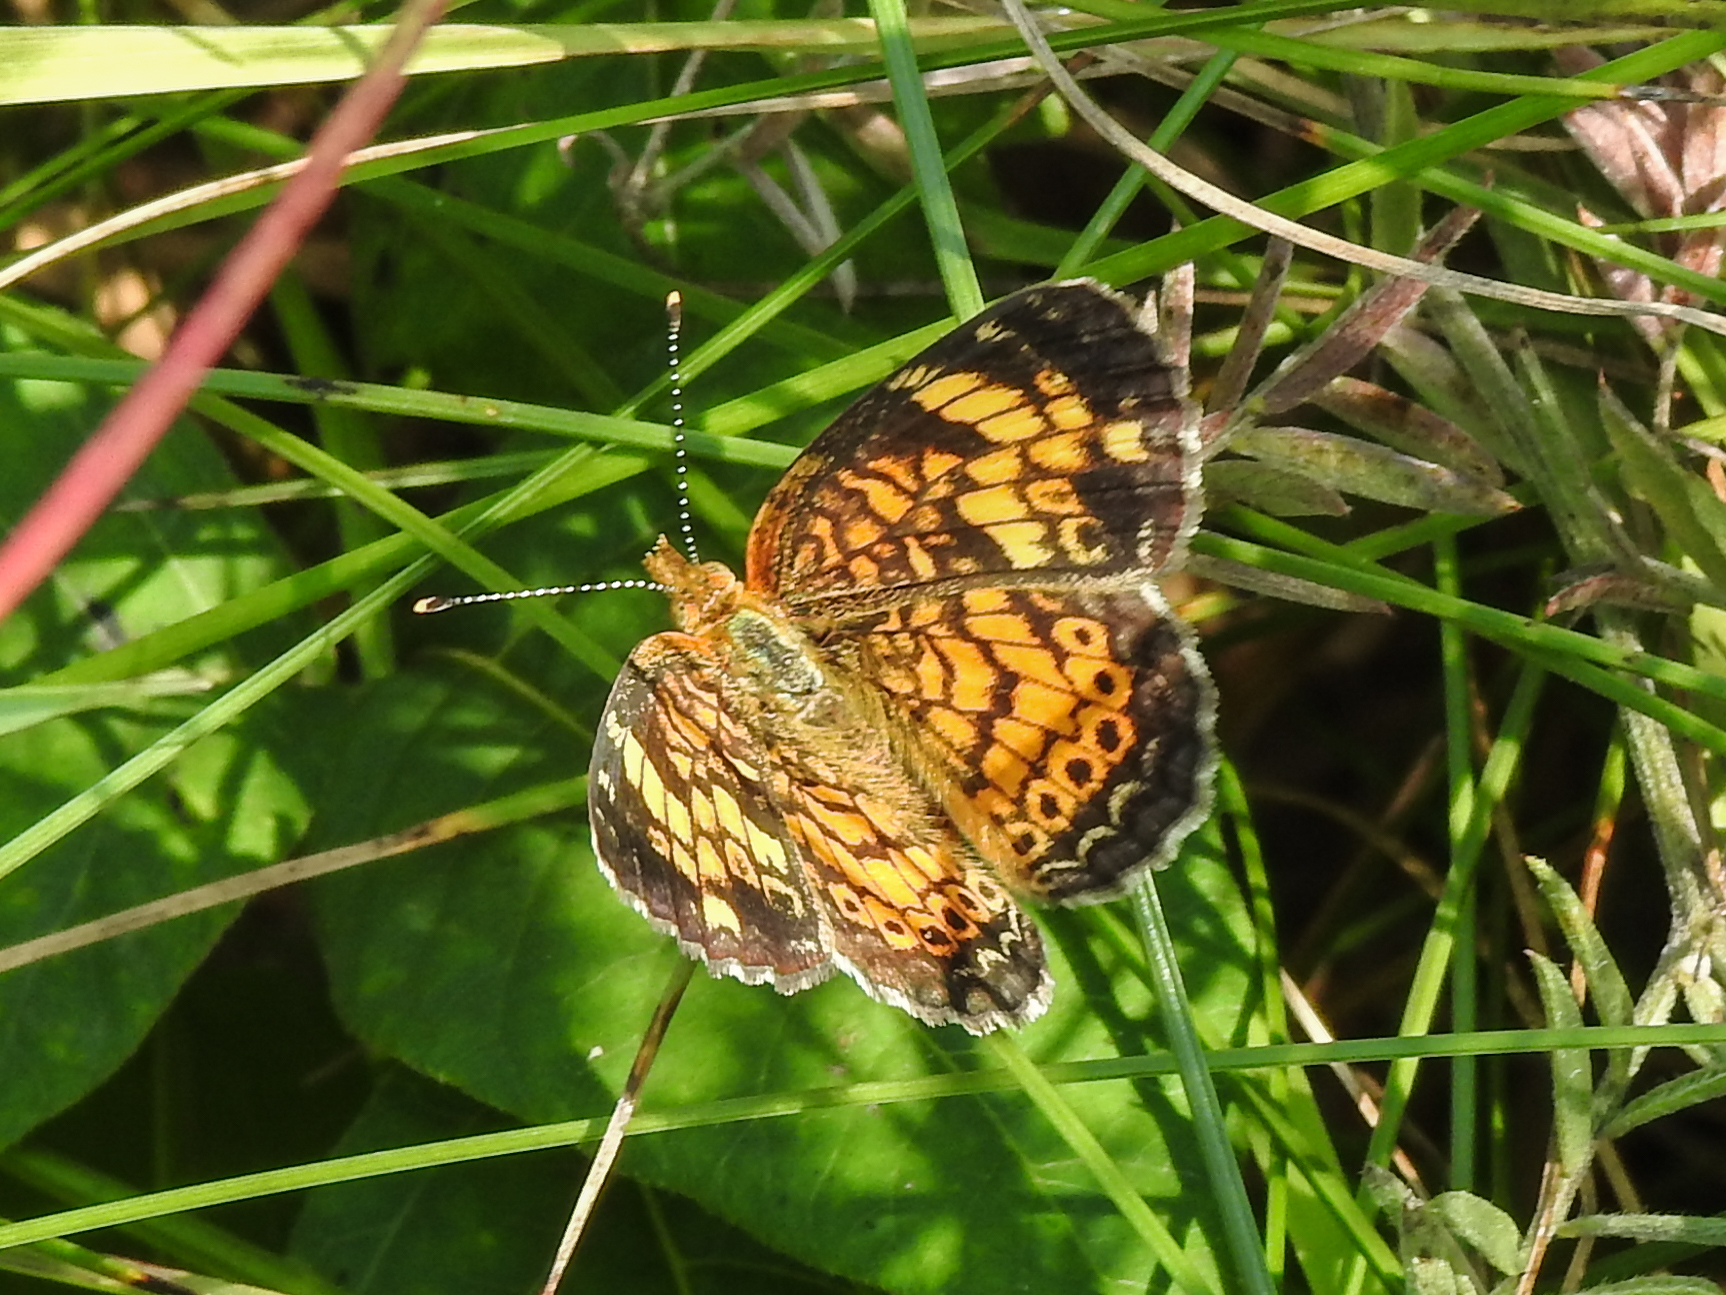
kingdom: Animalia
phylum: Arthropoda
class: Insecta
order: Lepidoptera
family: Nymphalidae
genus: Phyciodes
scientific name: Phyciodes tharos
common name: Pearl crescent
